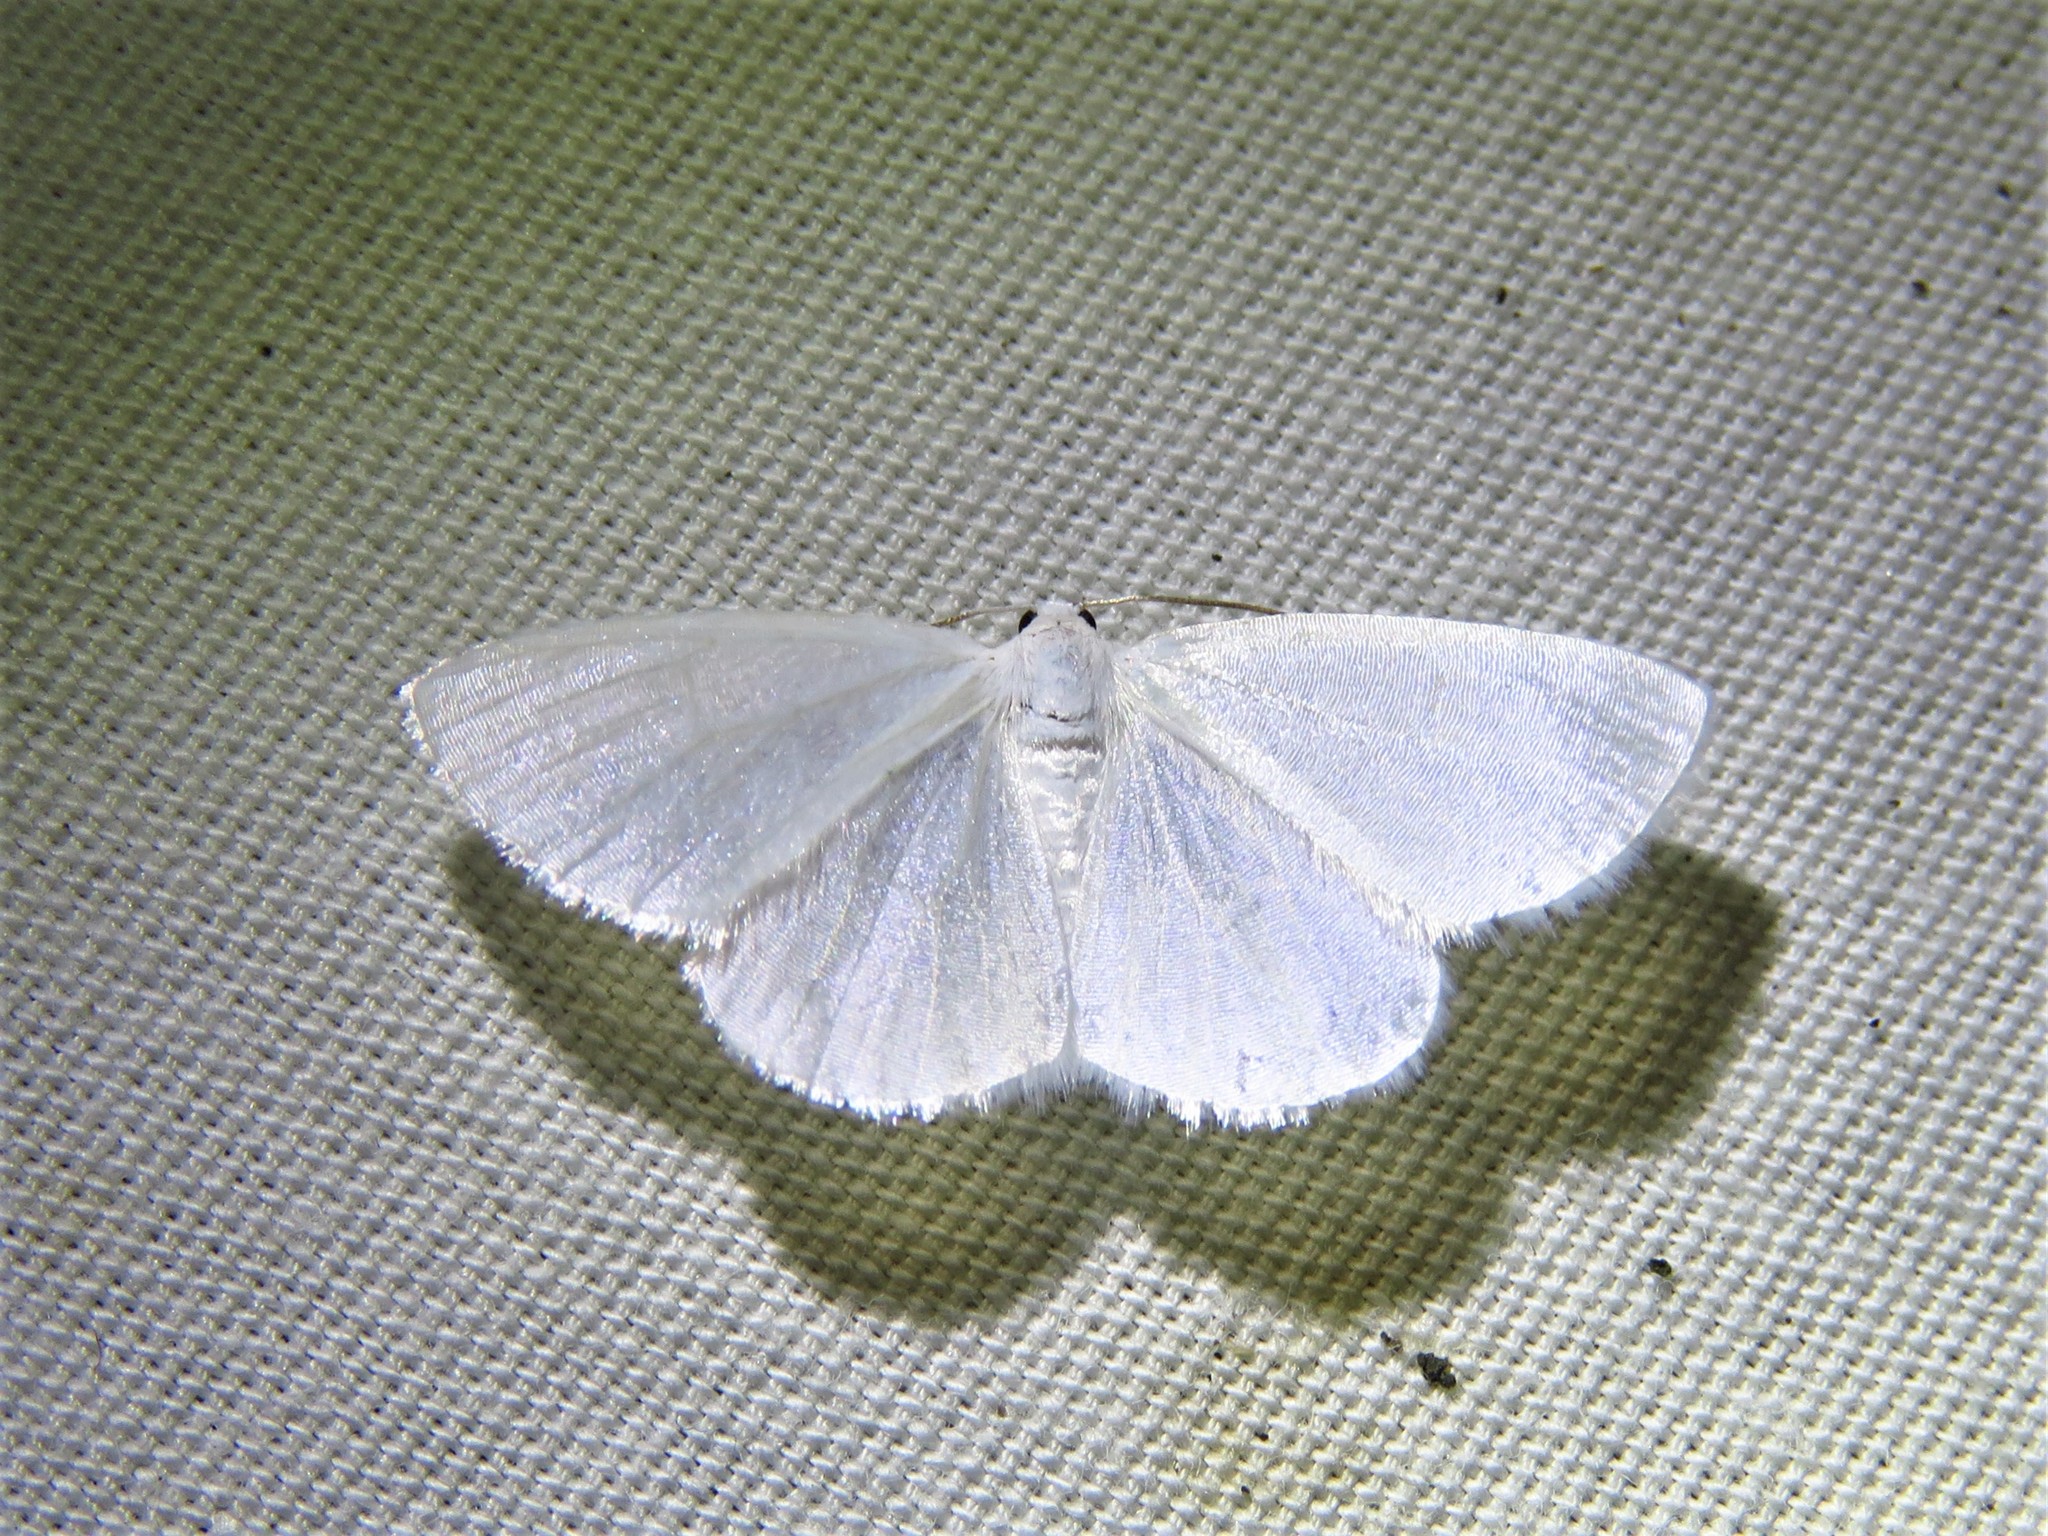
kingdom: Animalia
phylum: Arthropoda
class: Insecta
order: Lepidoptera
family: Geometridae
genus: Lomographa
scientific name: Lomographa vestaliata
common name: White spring moth
